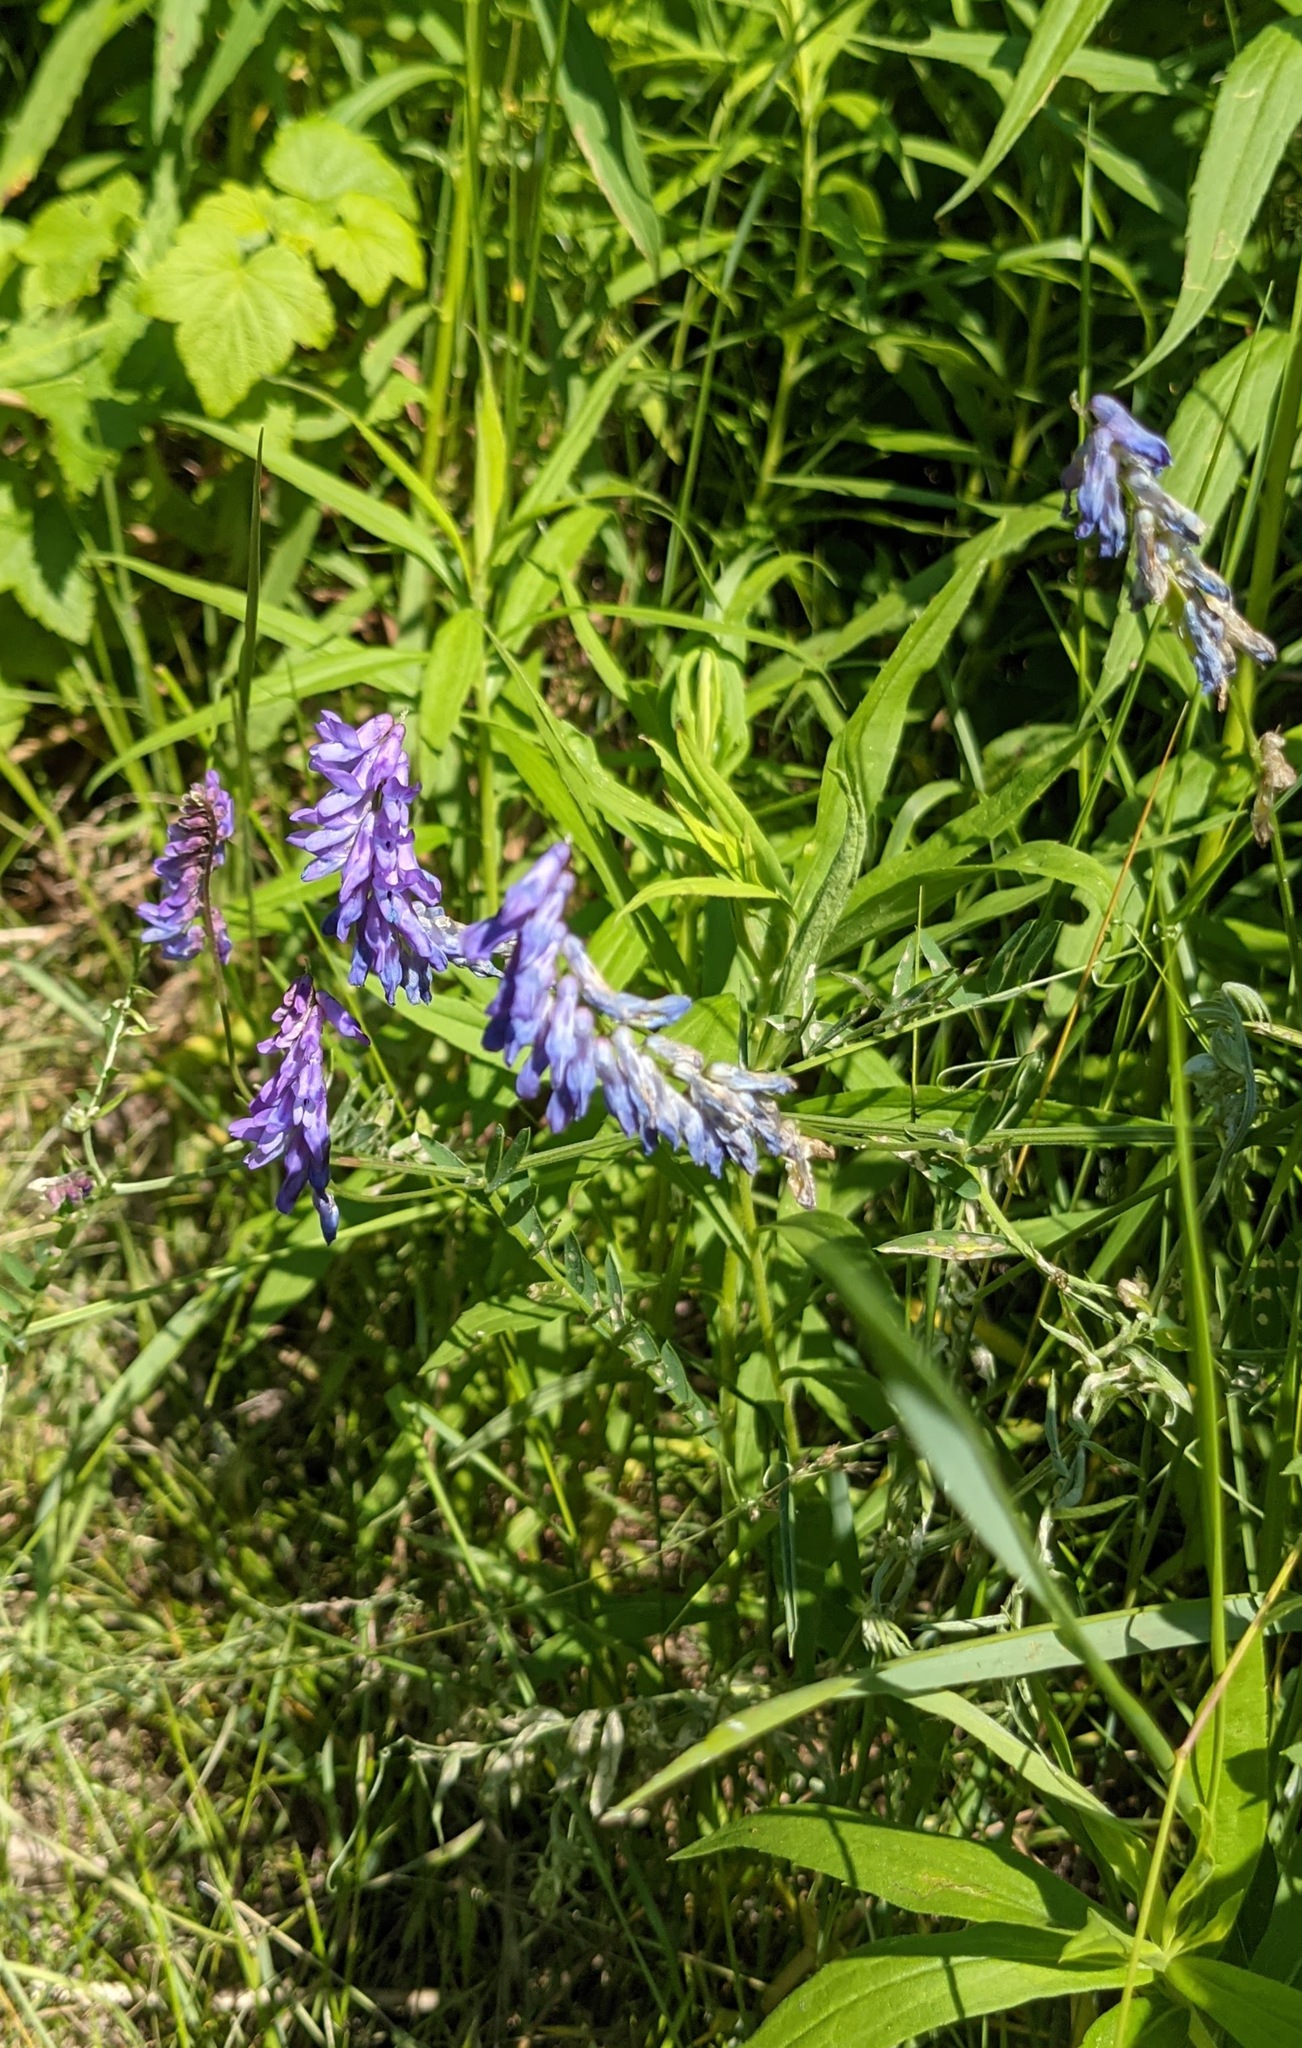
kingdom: Plantae
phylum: Tracheophyta
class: Magnoliopsida
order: Fabales
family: Fabaceae
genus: Vicia
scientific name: Vicia cracca
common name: Bird vetch
